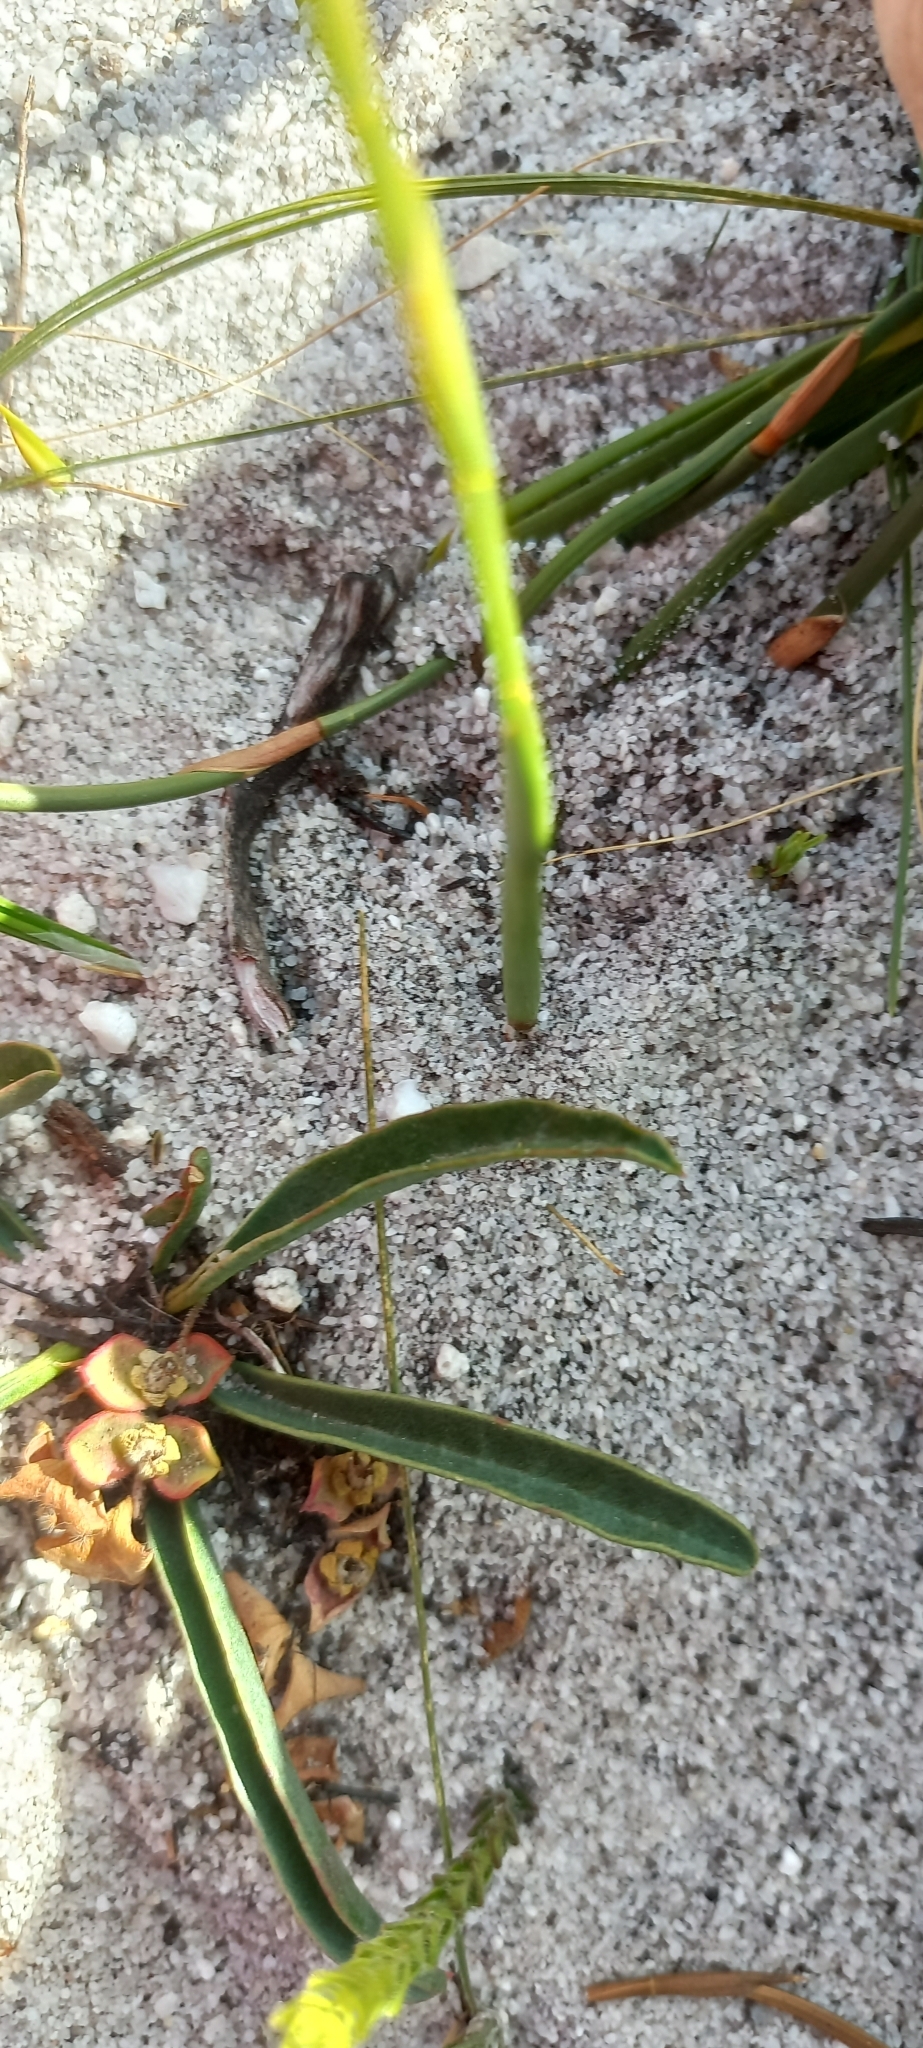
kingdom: Plantae
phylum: Tracheophyta
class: Magnoliopsida
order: Malpighiales
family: Euphorbiaceae
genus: Euphorbia
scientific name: Euphorbia tuberosa
